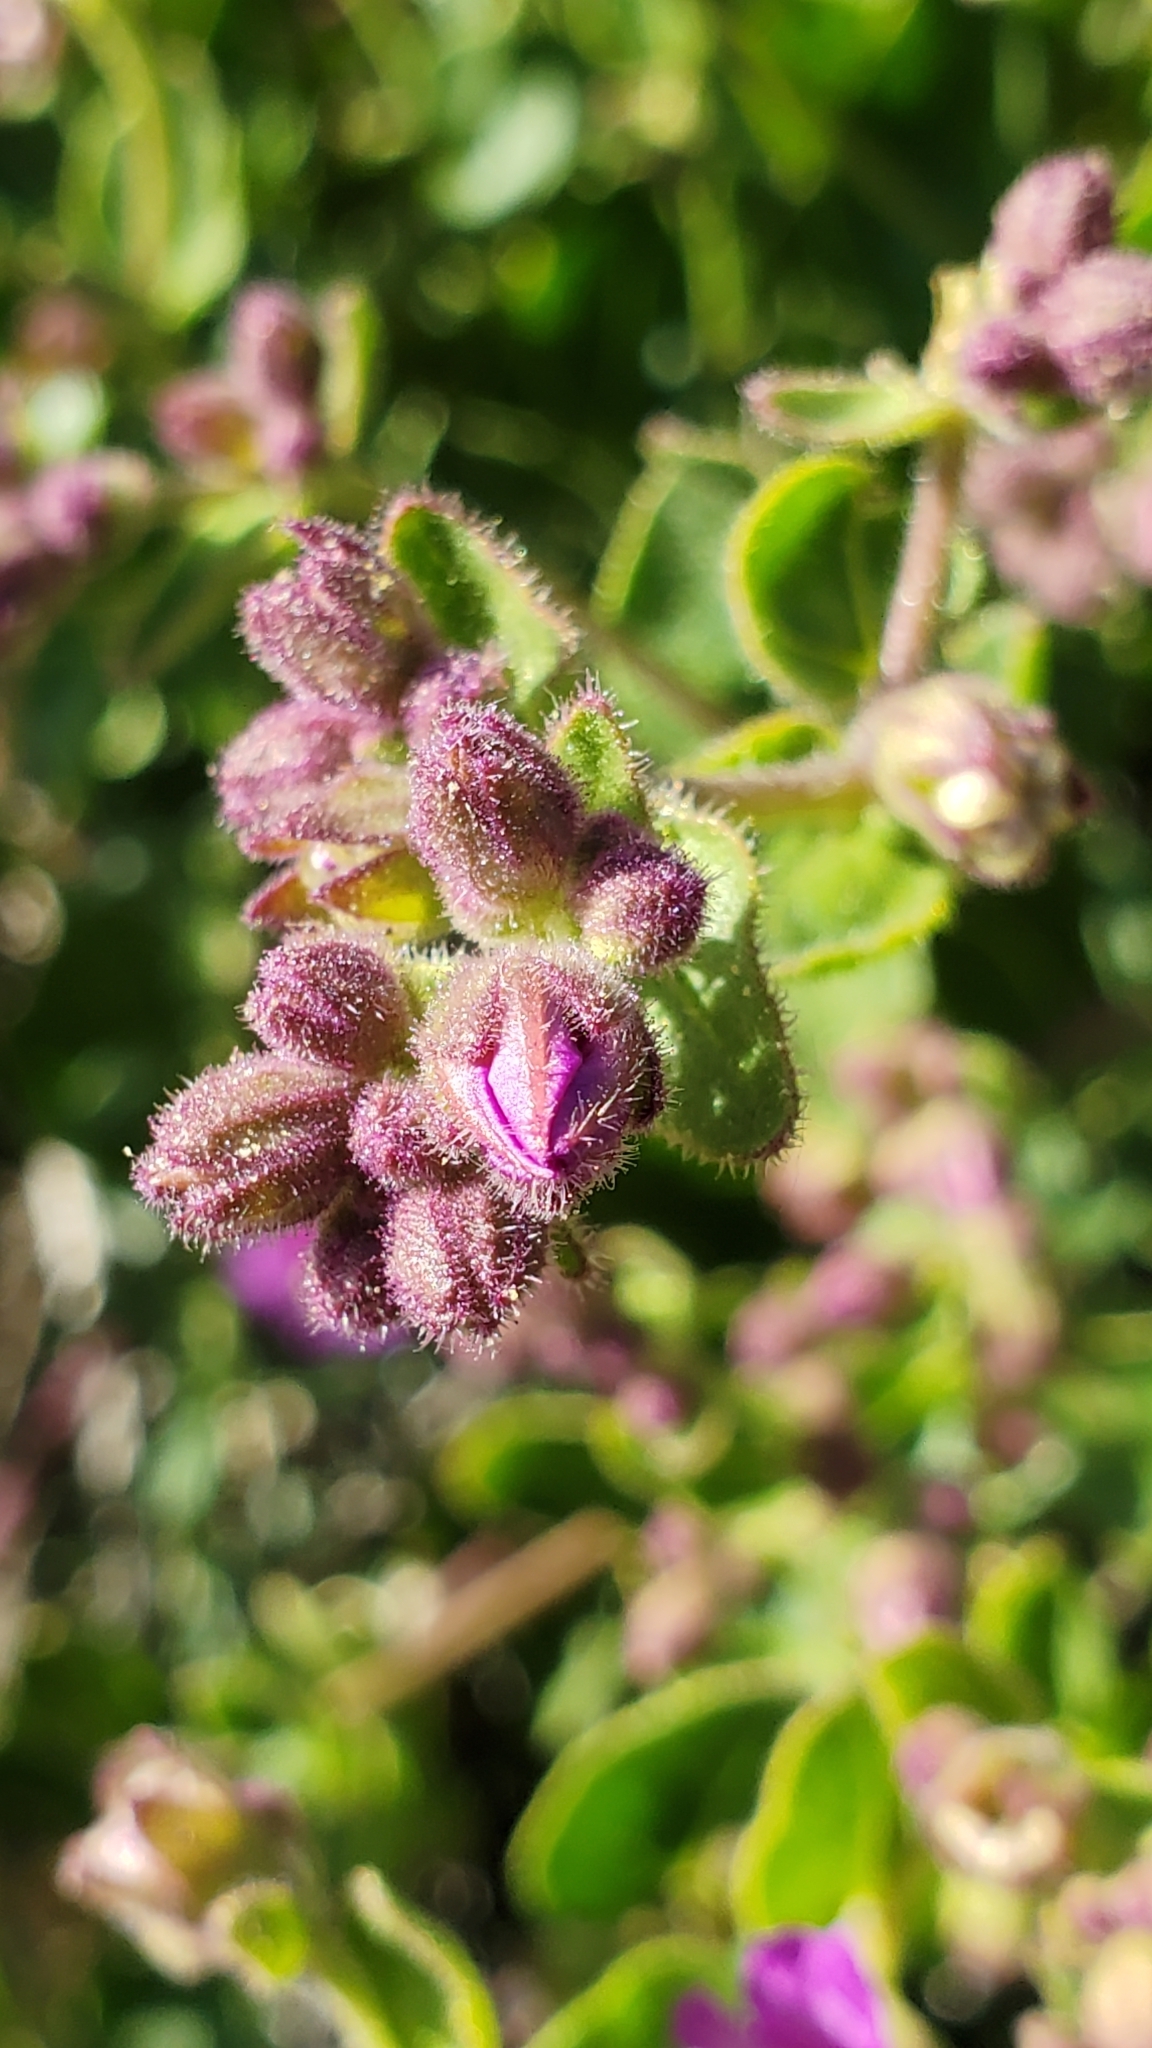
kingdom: Plantae
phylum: Tracheophyta
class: Magnoliopsida
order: Caryophyllales
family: Nyctaginaceae
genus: Mirabilis
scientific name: Mirabilis laevis
